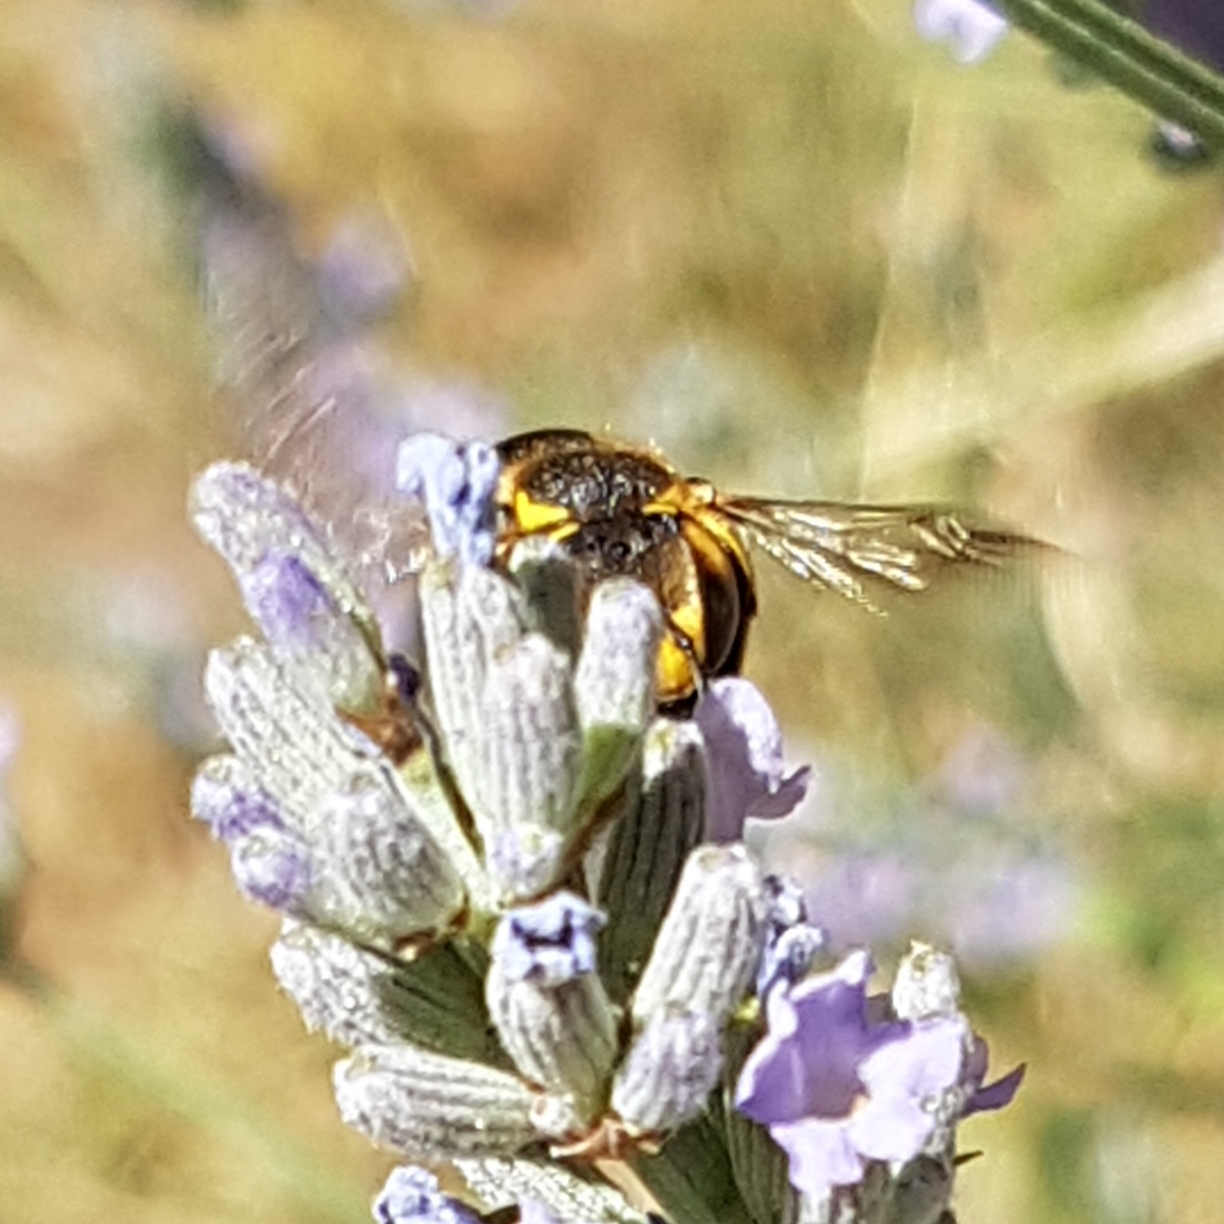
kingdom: Animalia
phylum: Arthropoda
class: Insecta
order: Hymenoptera
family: Megachilidae
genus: Anthidium
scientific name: Anthidium florentinum
